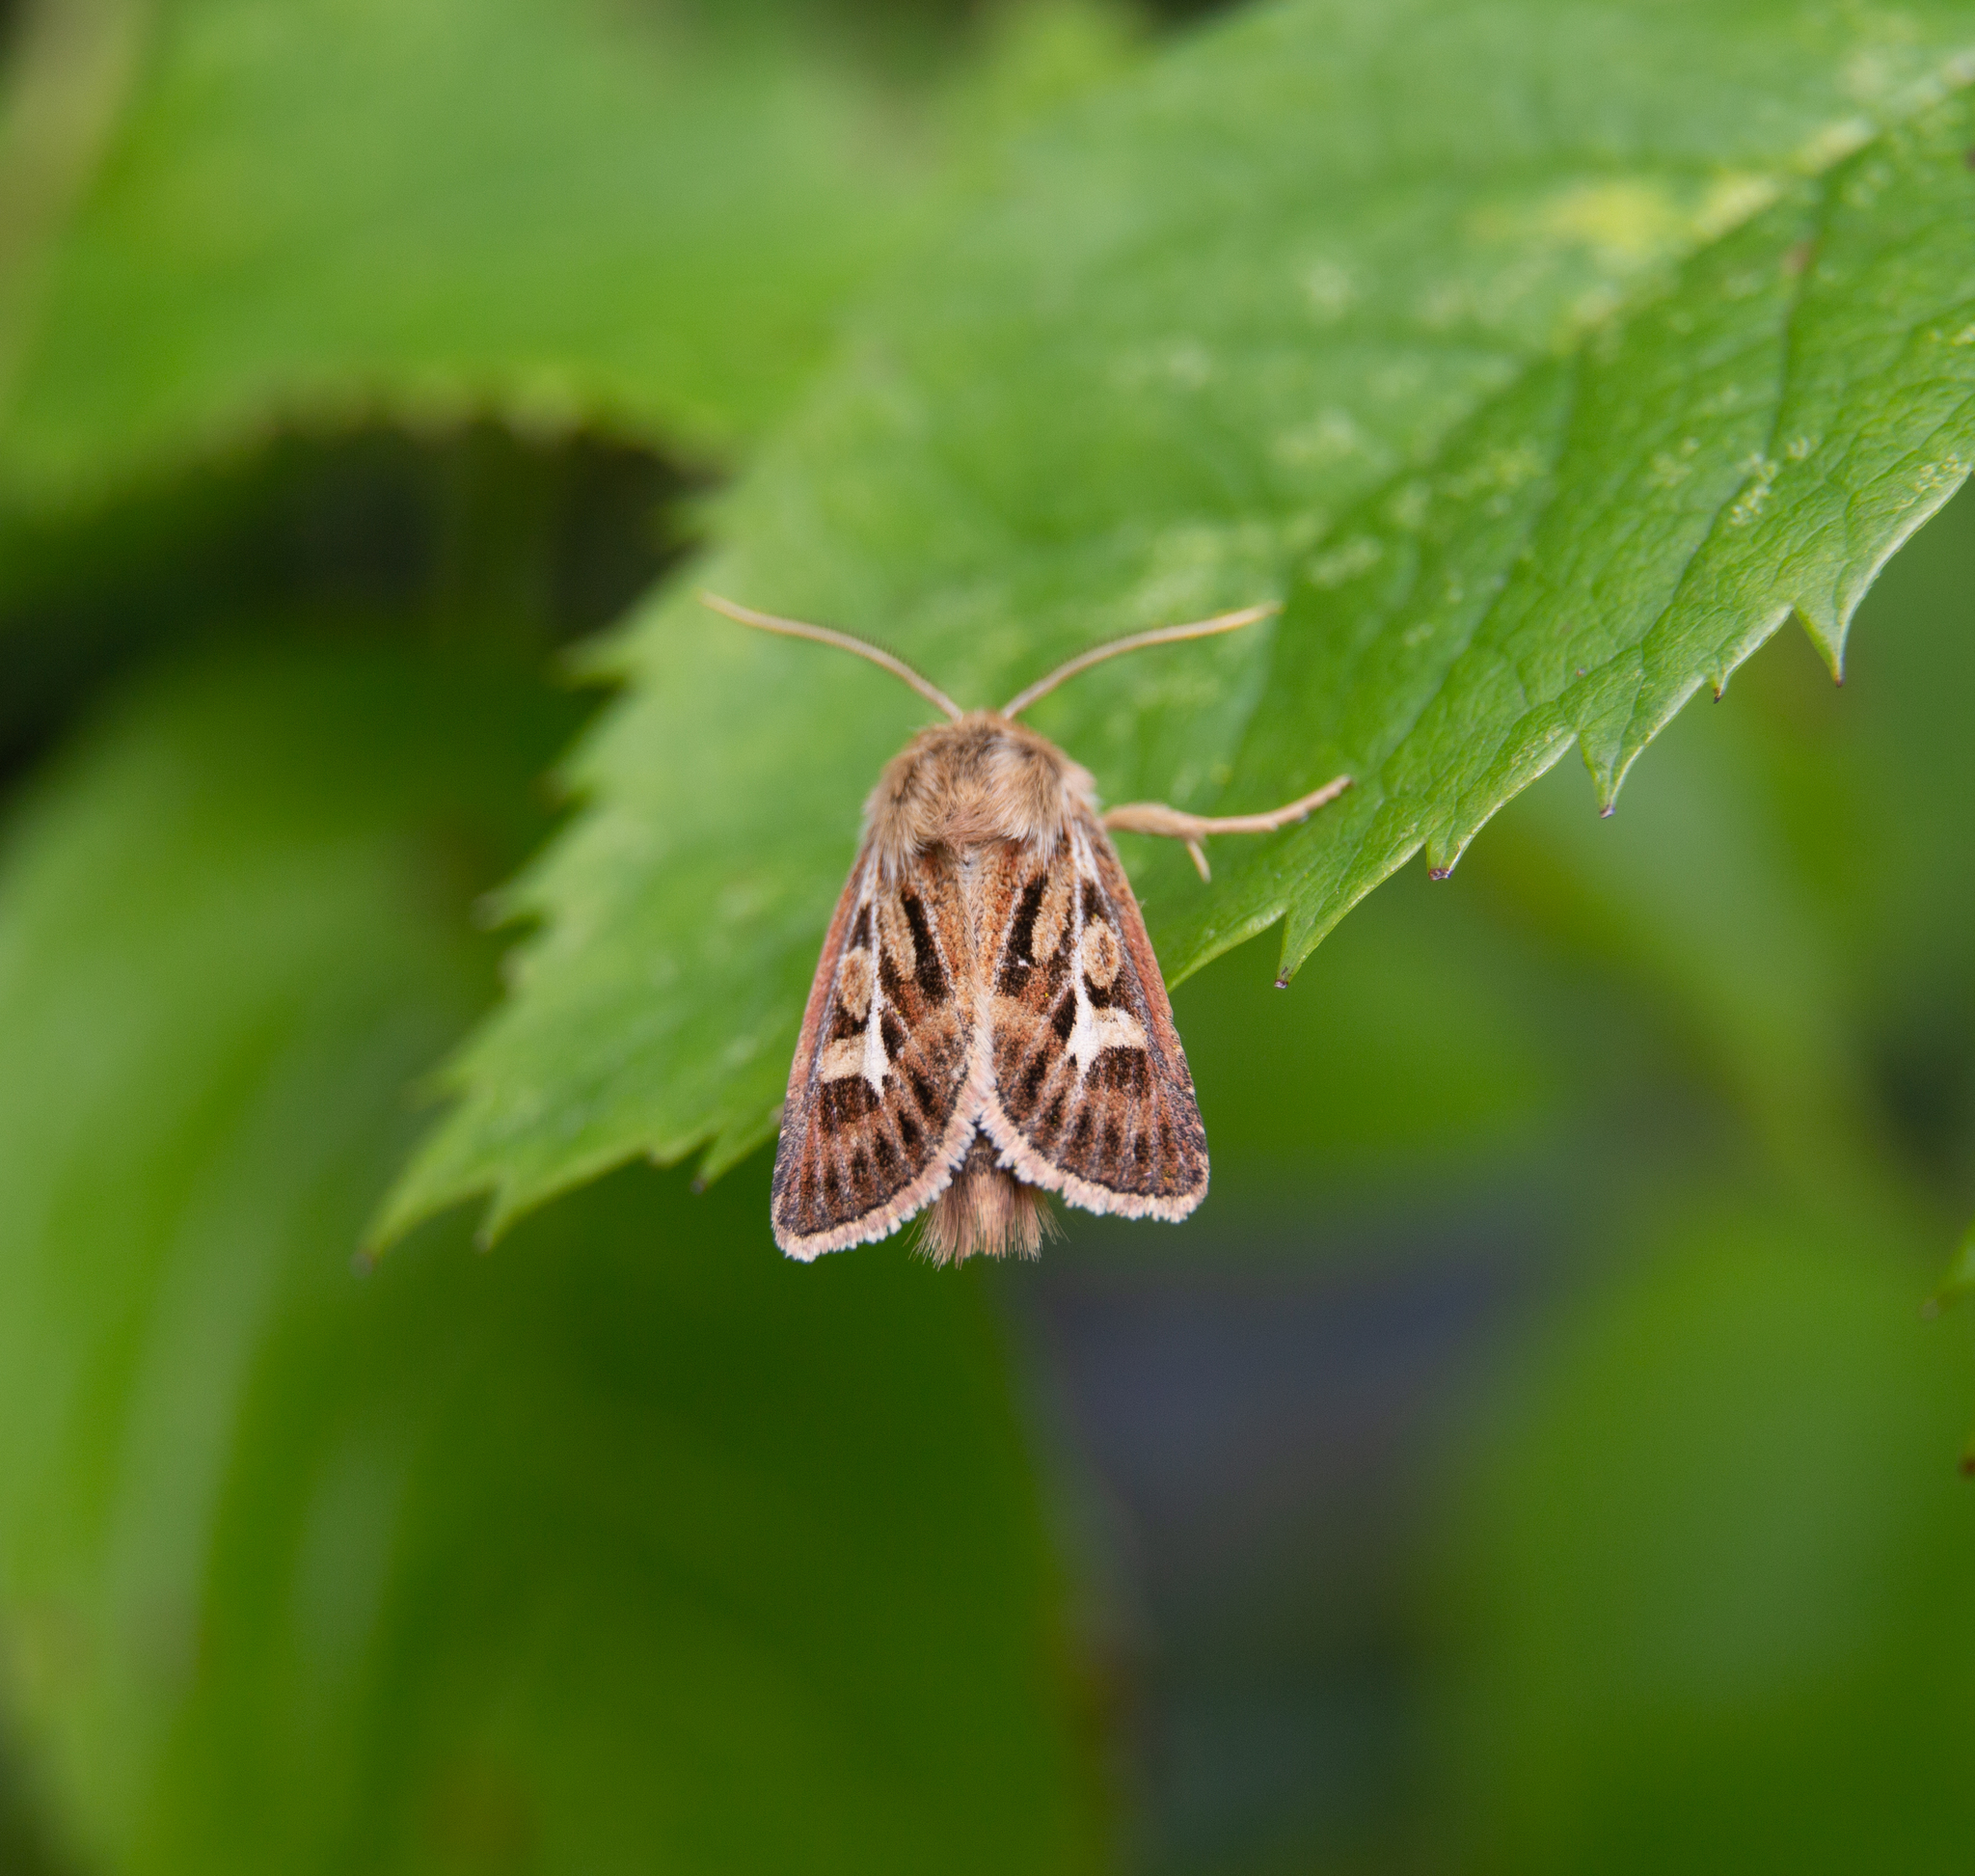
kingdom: Animalia
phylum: Arthropoda
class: Insecta
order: Lepidoptera
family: Noctuidae
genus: Cerapteryx
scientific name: Cerapteryx graminis
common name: Antler moth
